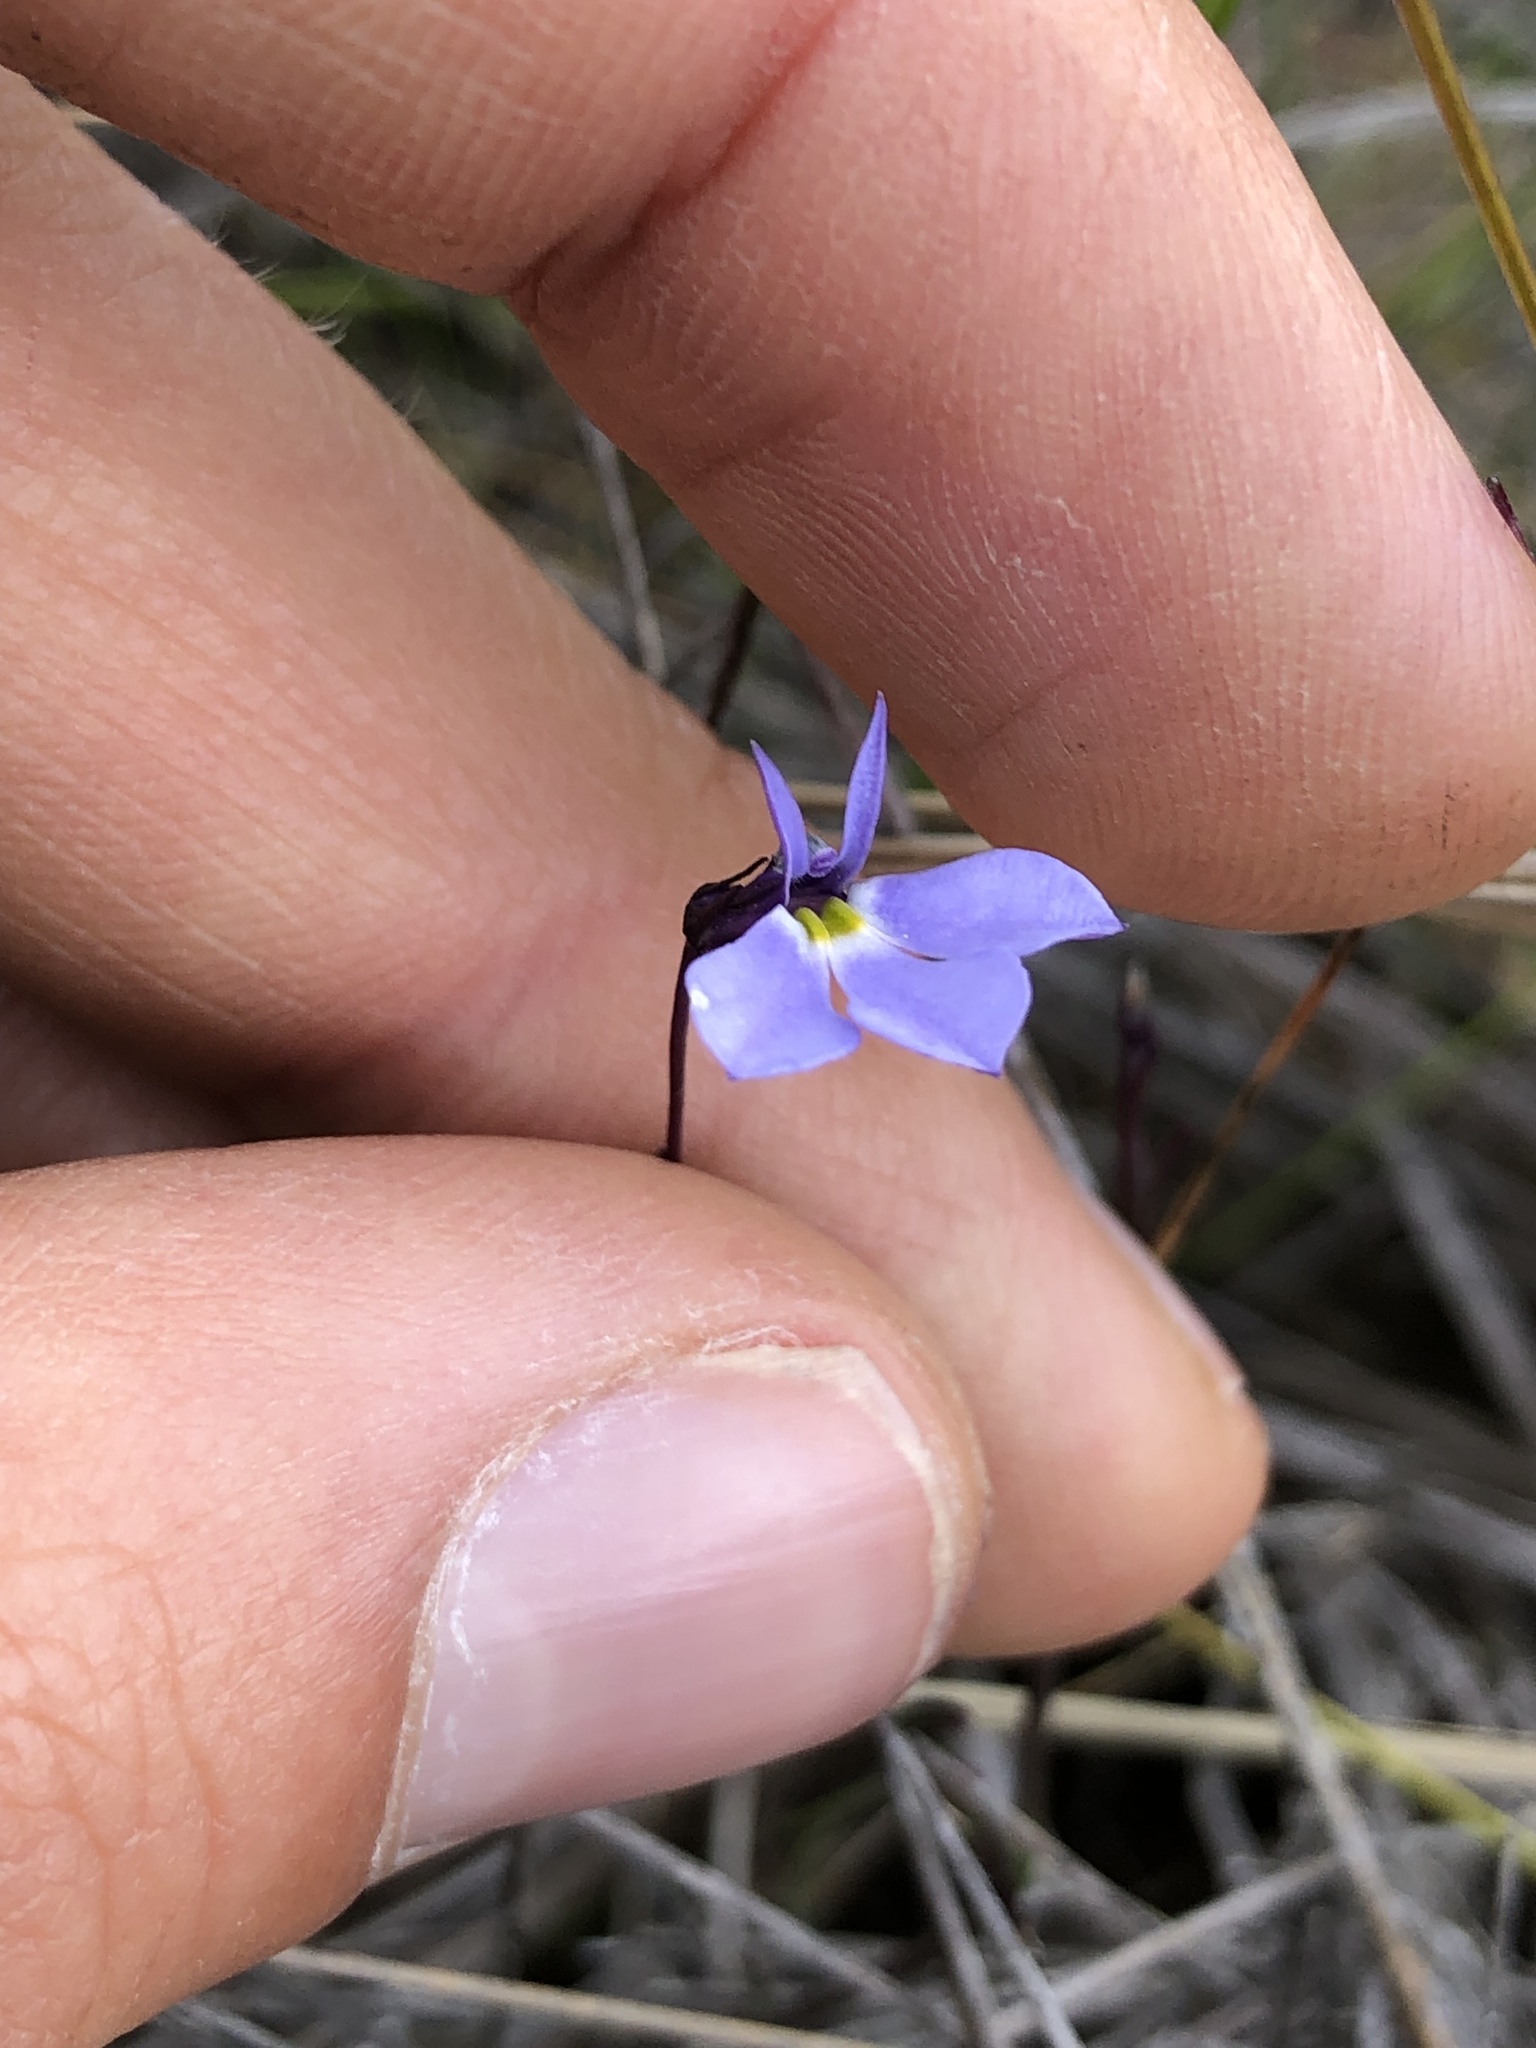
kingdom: Plantae
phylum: Tracheophyta
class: Magnoliopsida
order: Asterales
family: Campanulaceae
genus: Lobelia
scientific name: Lobelia tenera
